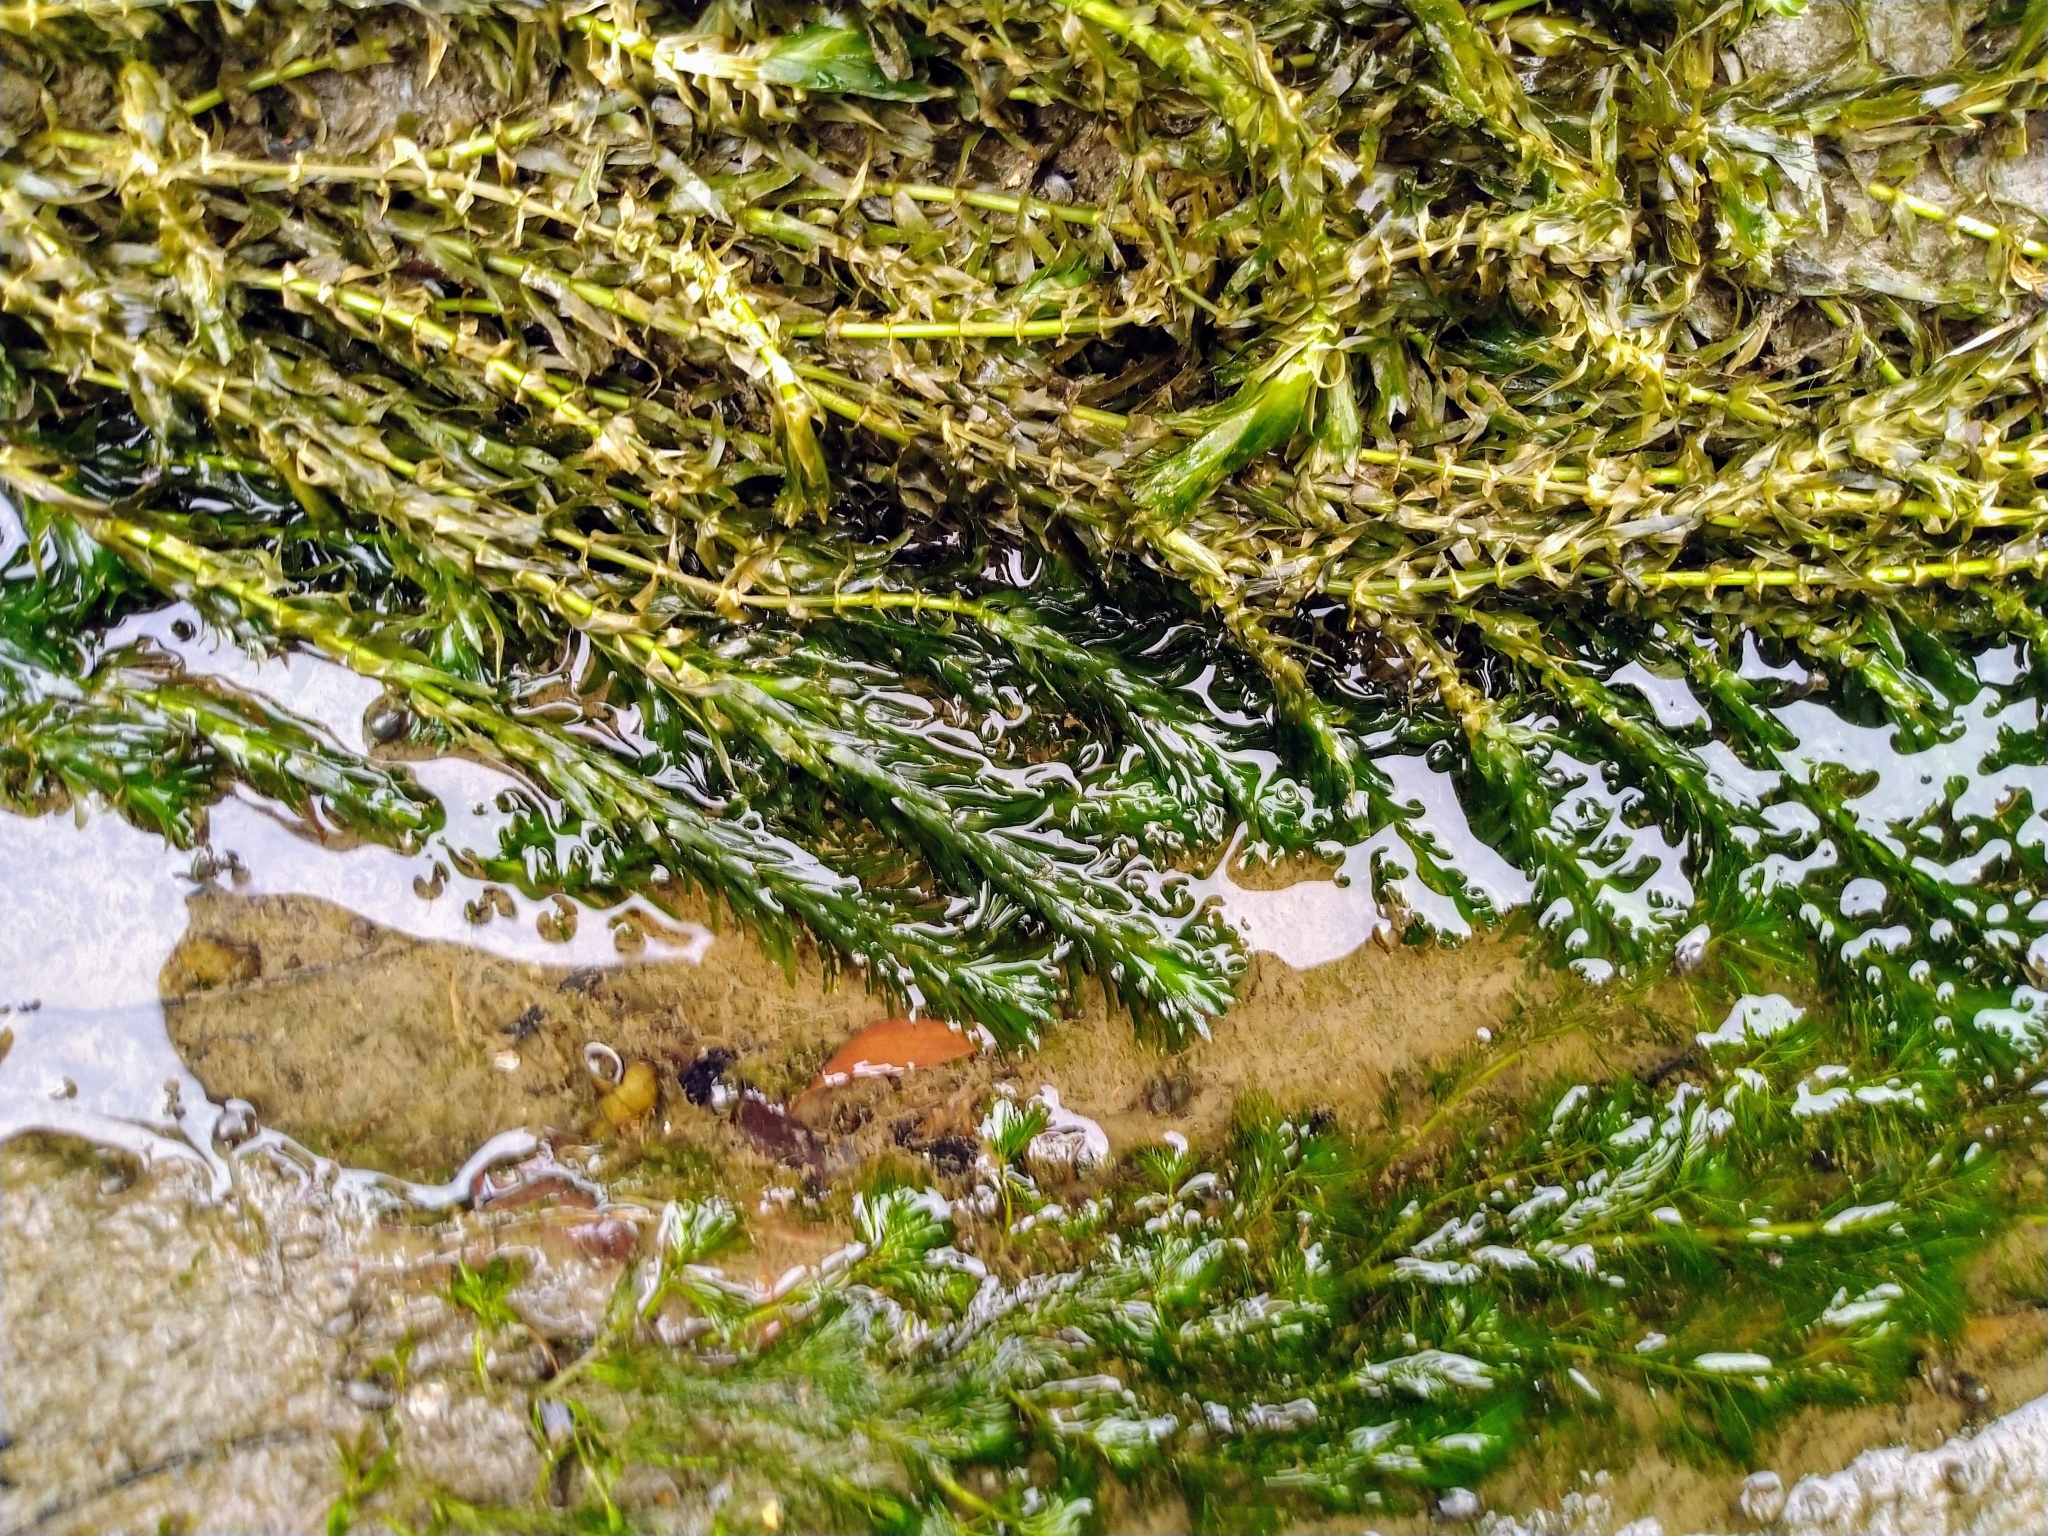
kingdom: Plantae
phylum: Tracheophyta
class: Liliopsida
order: Alismatales
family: Hydrocharitaceae
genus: Elodea
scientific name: Elodea densa
